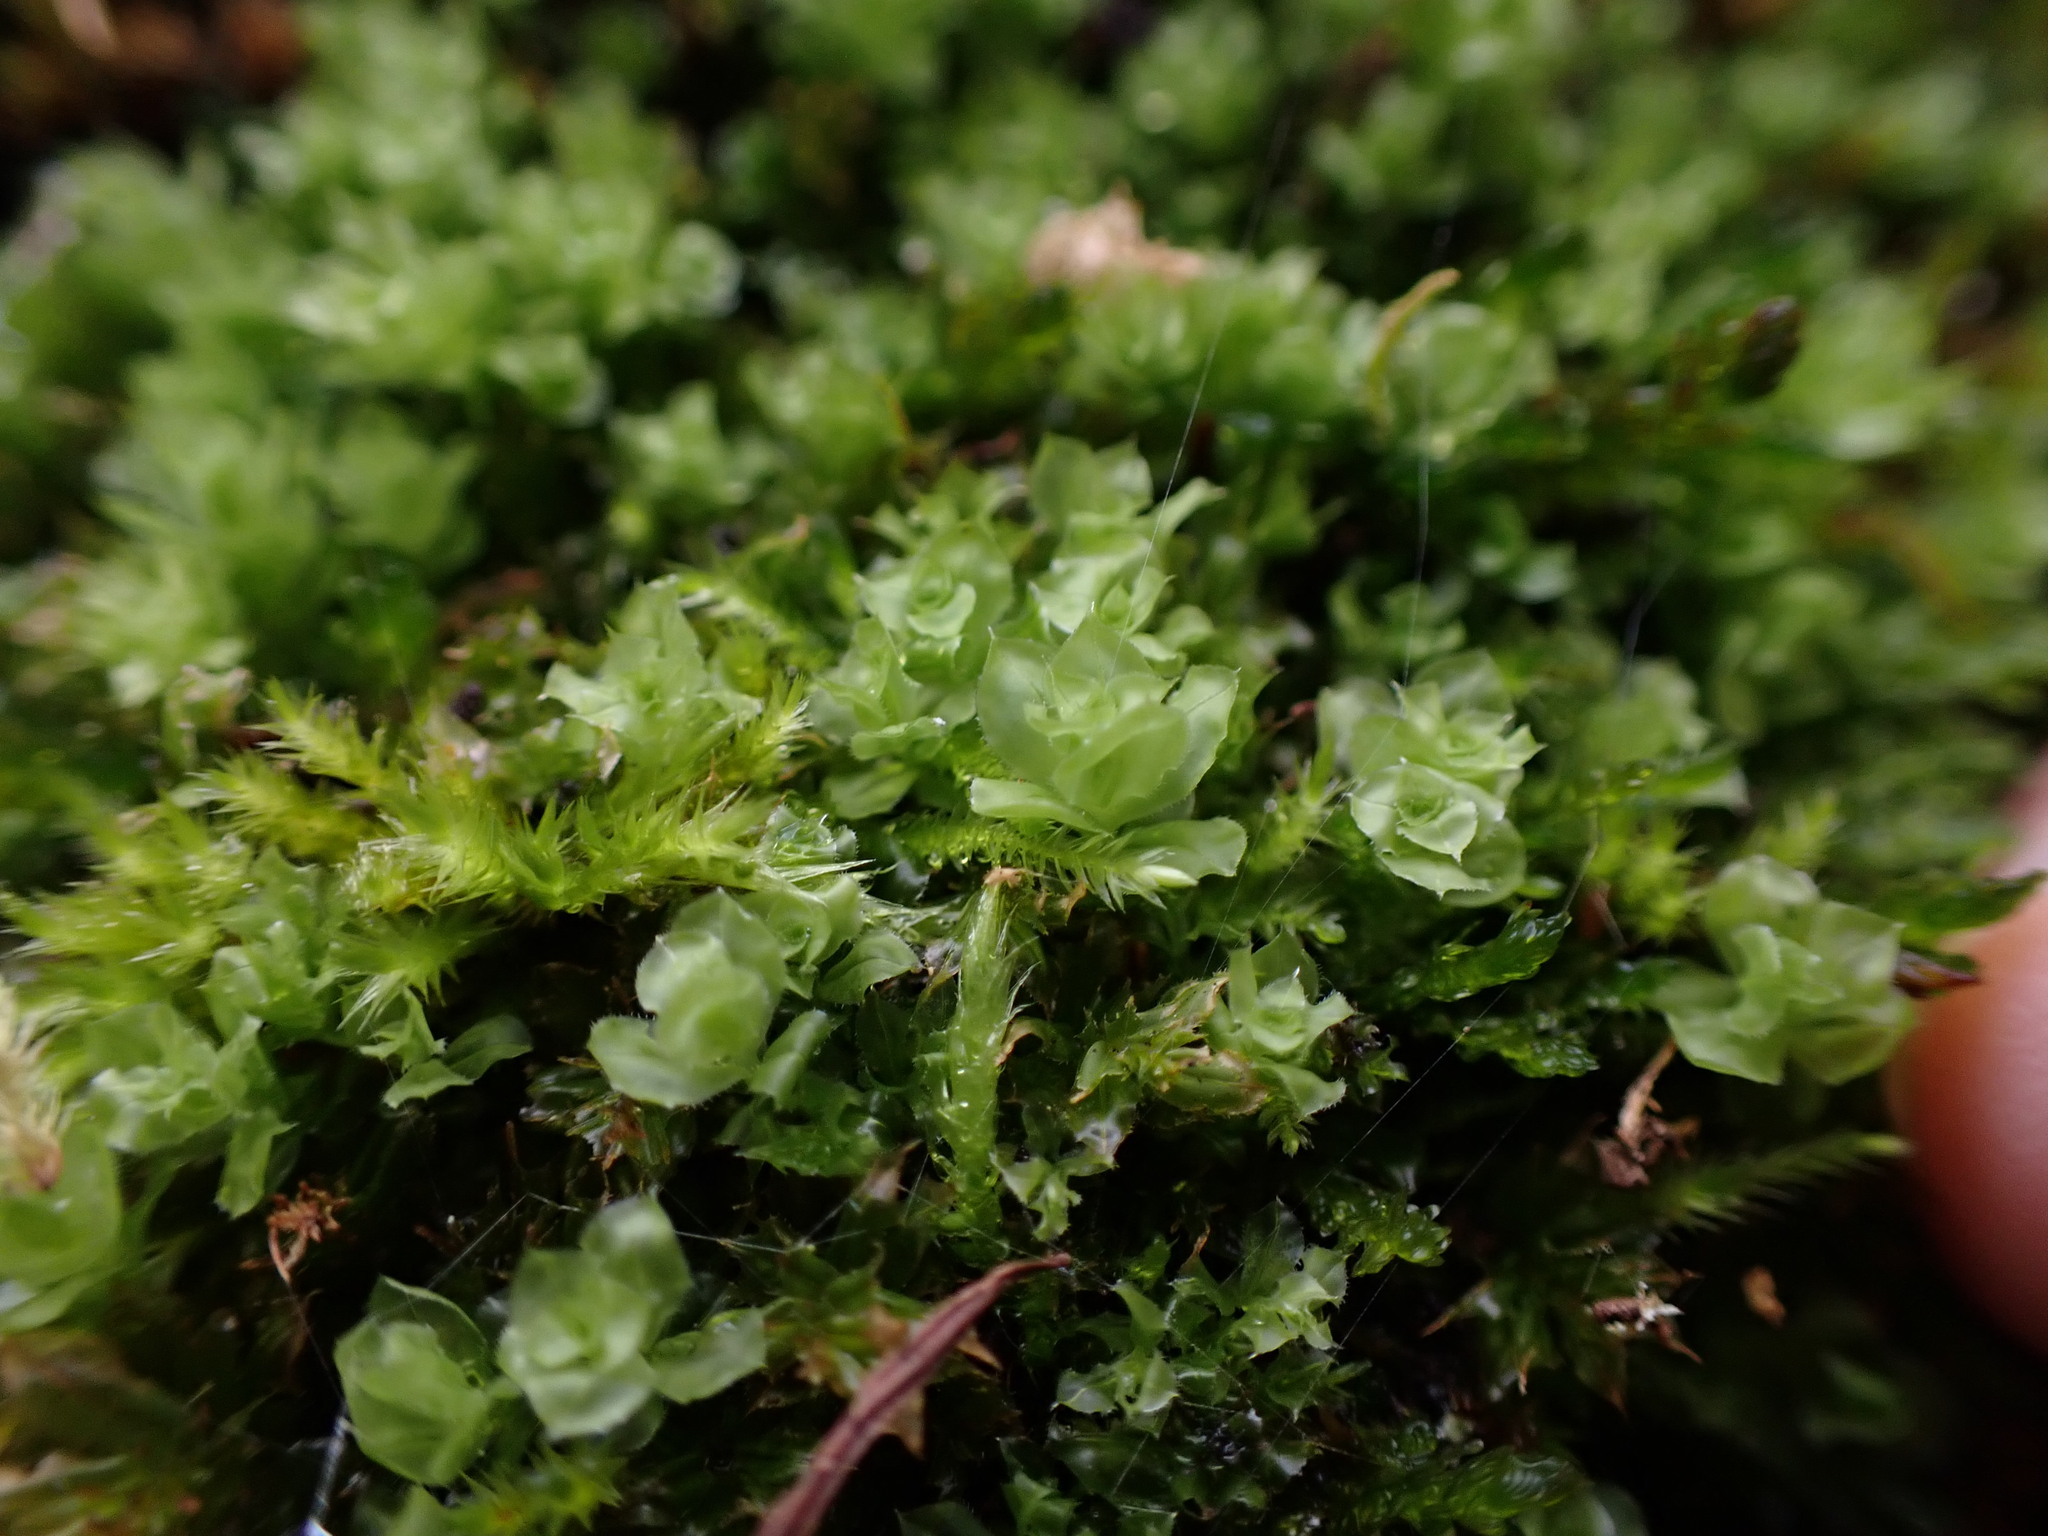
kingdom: Plantae
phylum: Bryophyta
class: Bryopsida
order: Bryales
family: Mniaceae
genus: Plagiomnium
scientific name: Plagiomnium venustum
